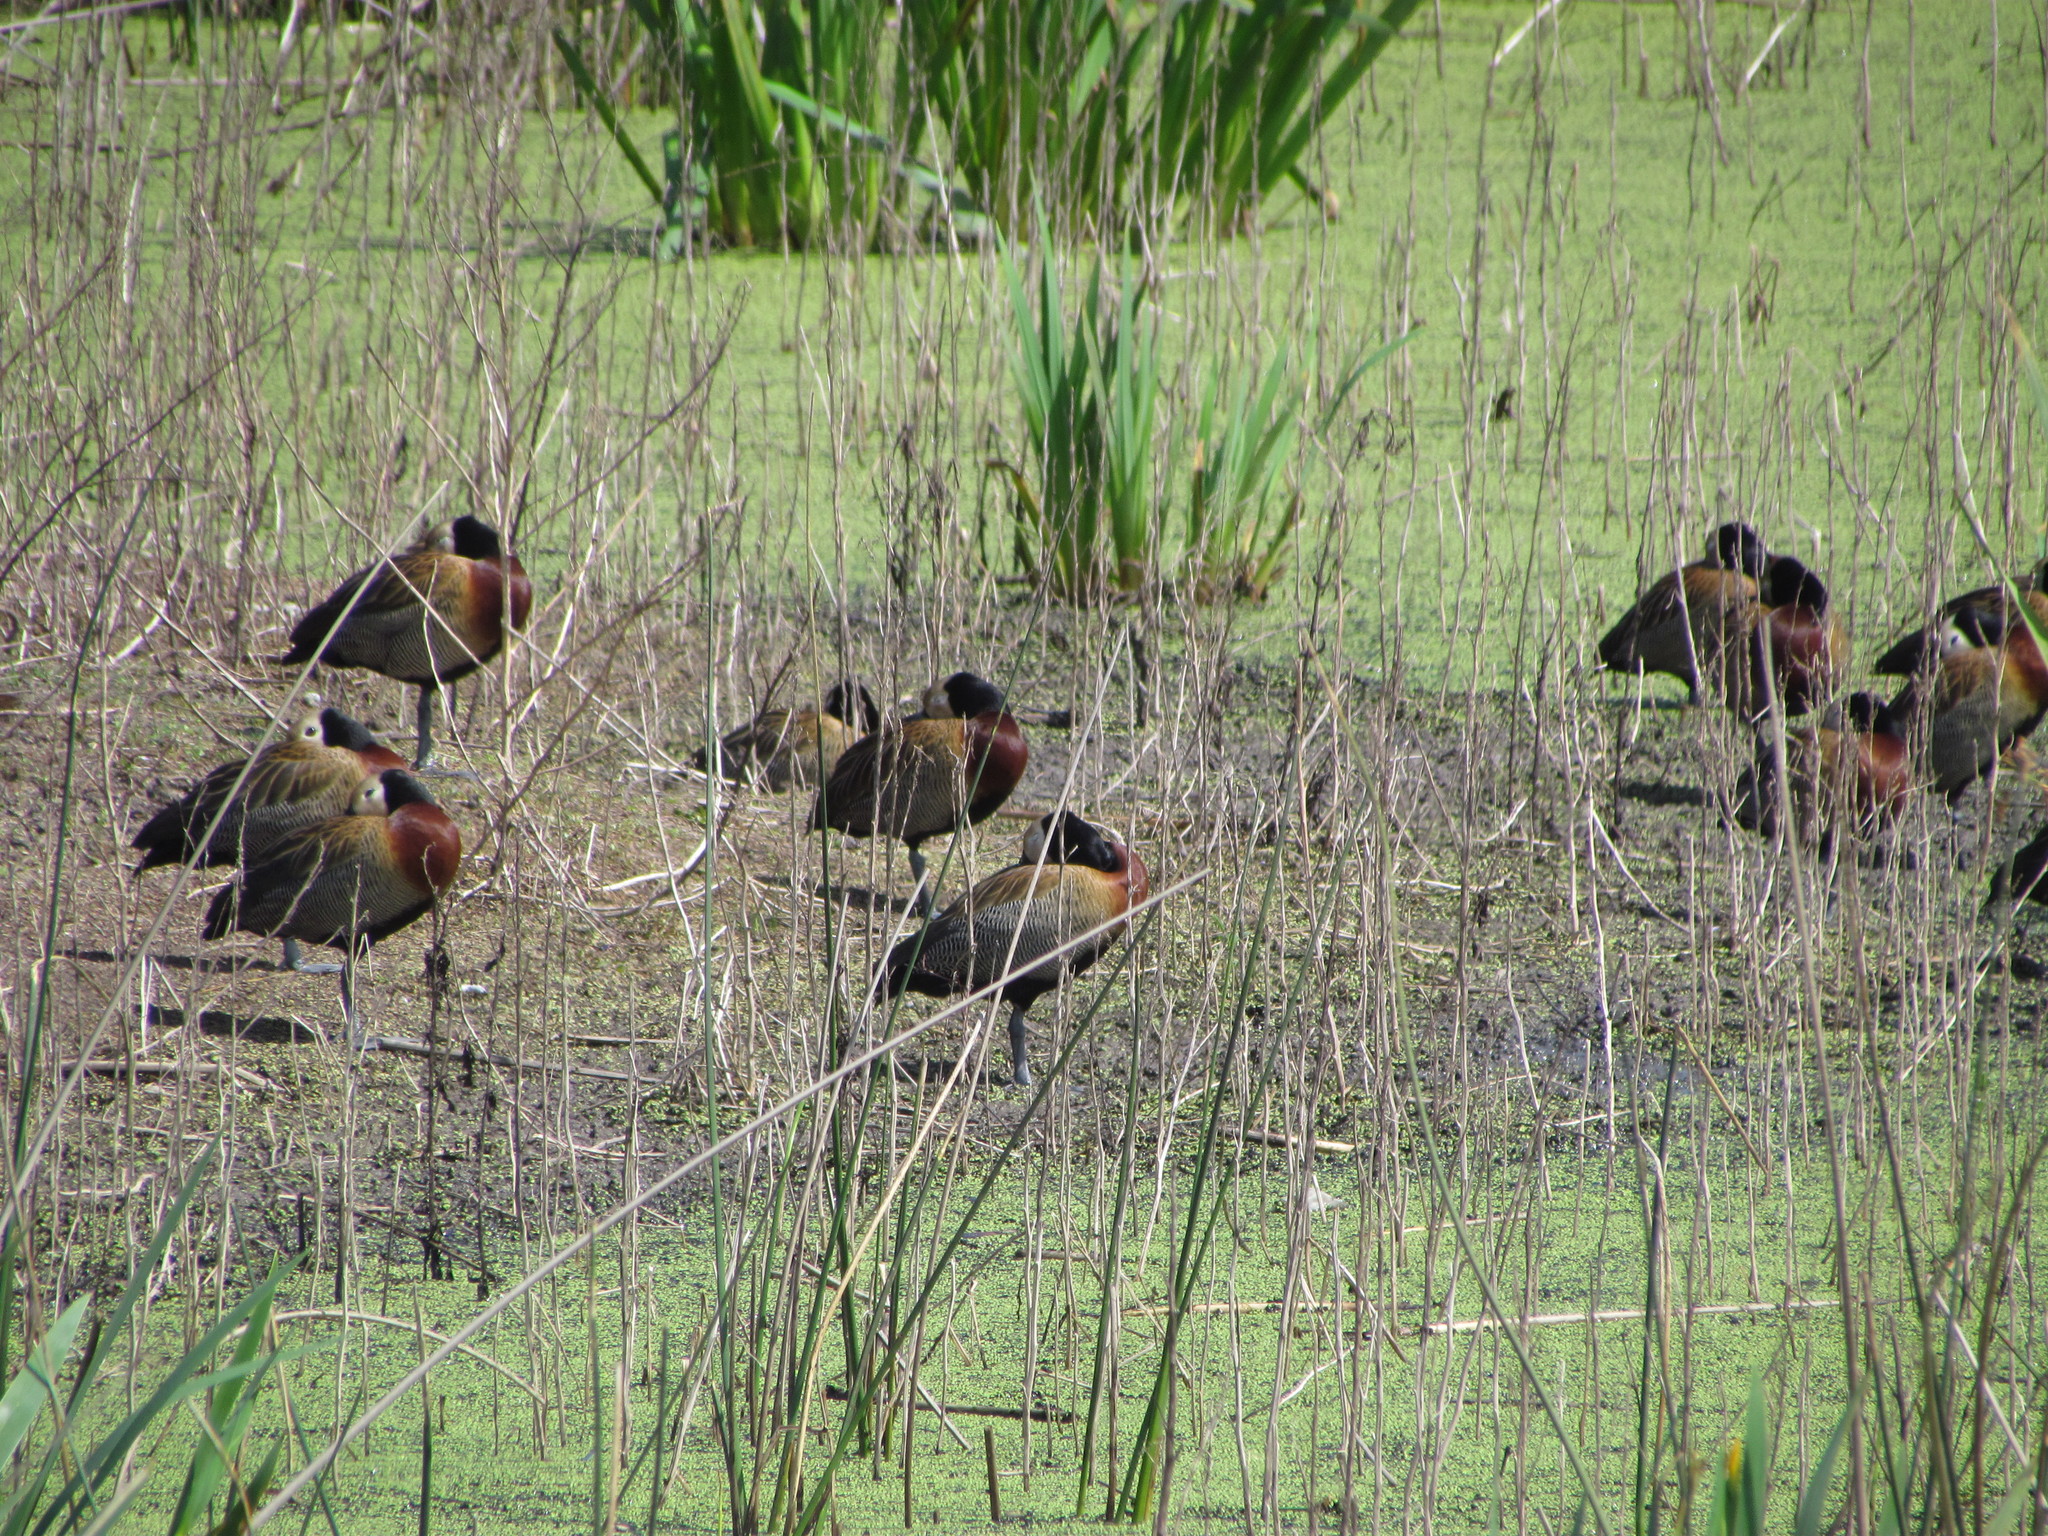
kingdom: Animalia
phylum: Chordata
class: Aves
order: Anseriformes
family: Anatidae
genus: Dendrocygna
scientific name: Dendrocygna viduata
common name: White-faced whistling duck
